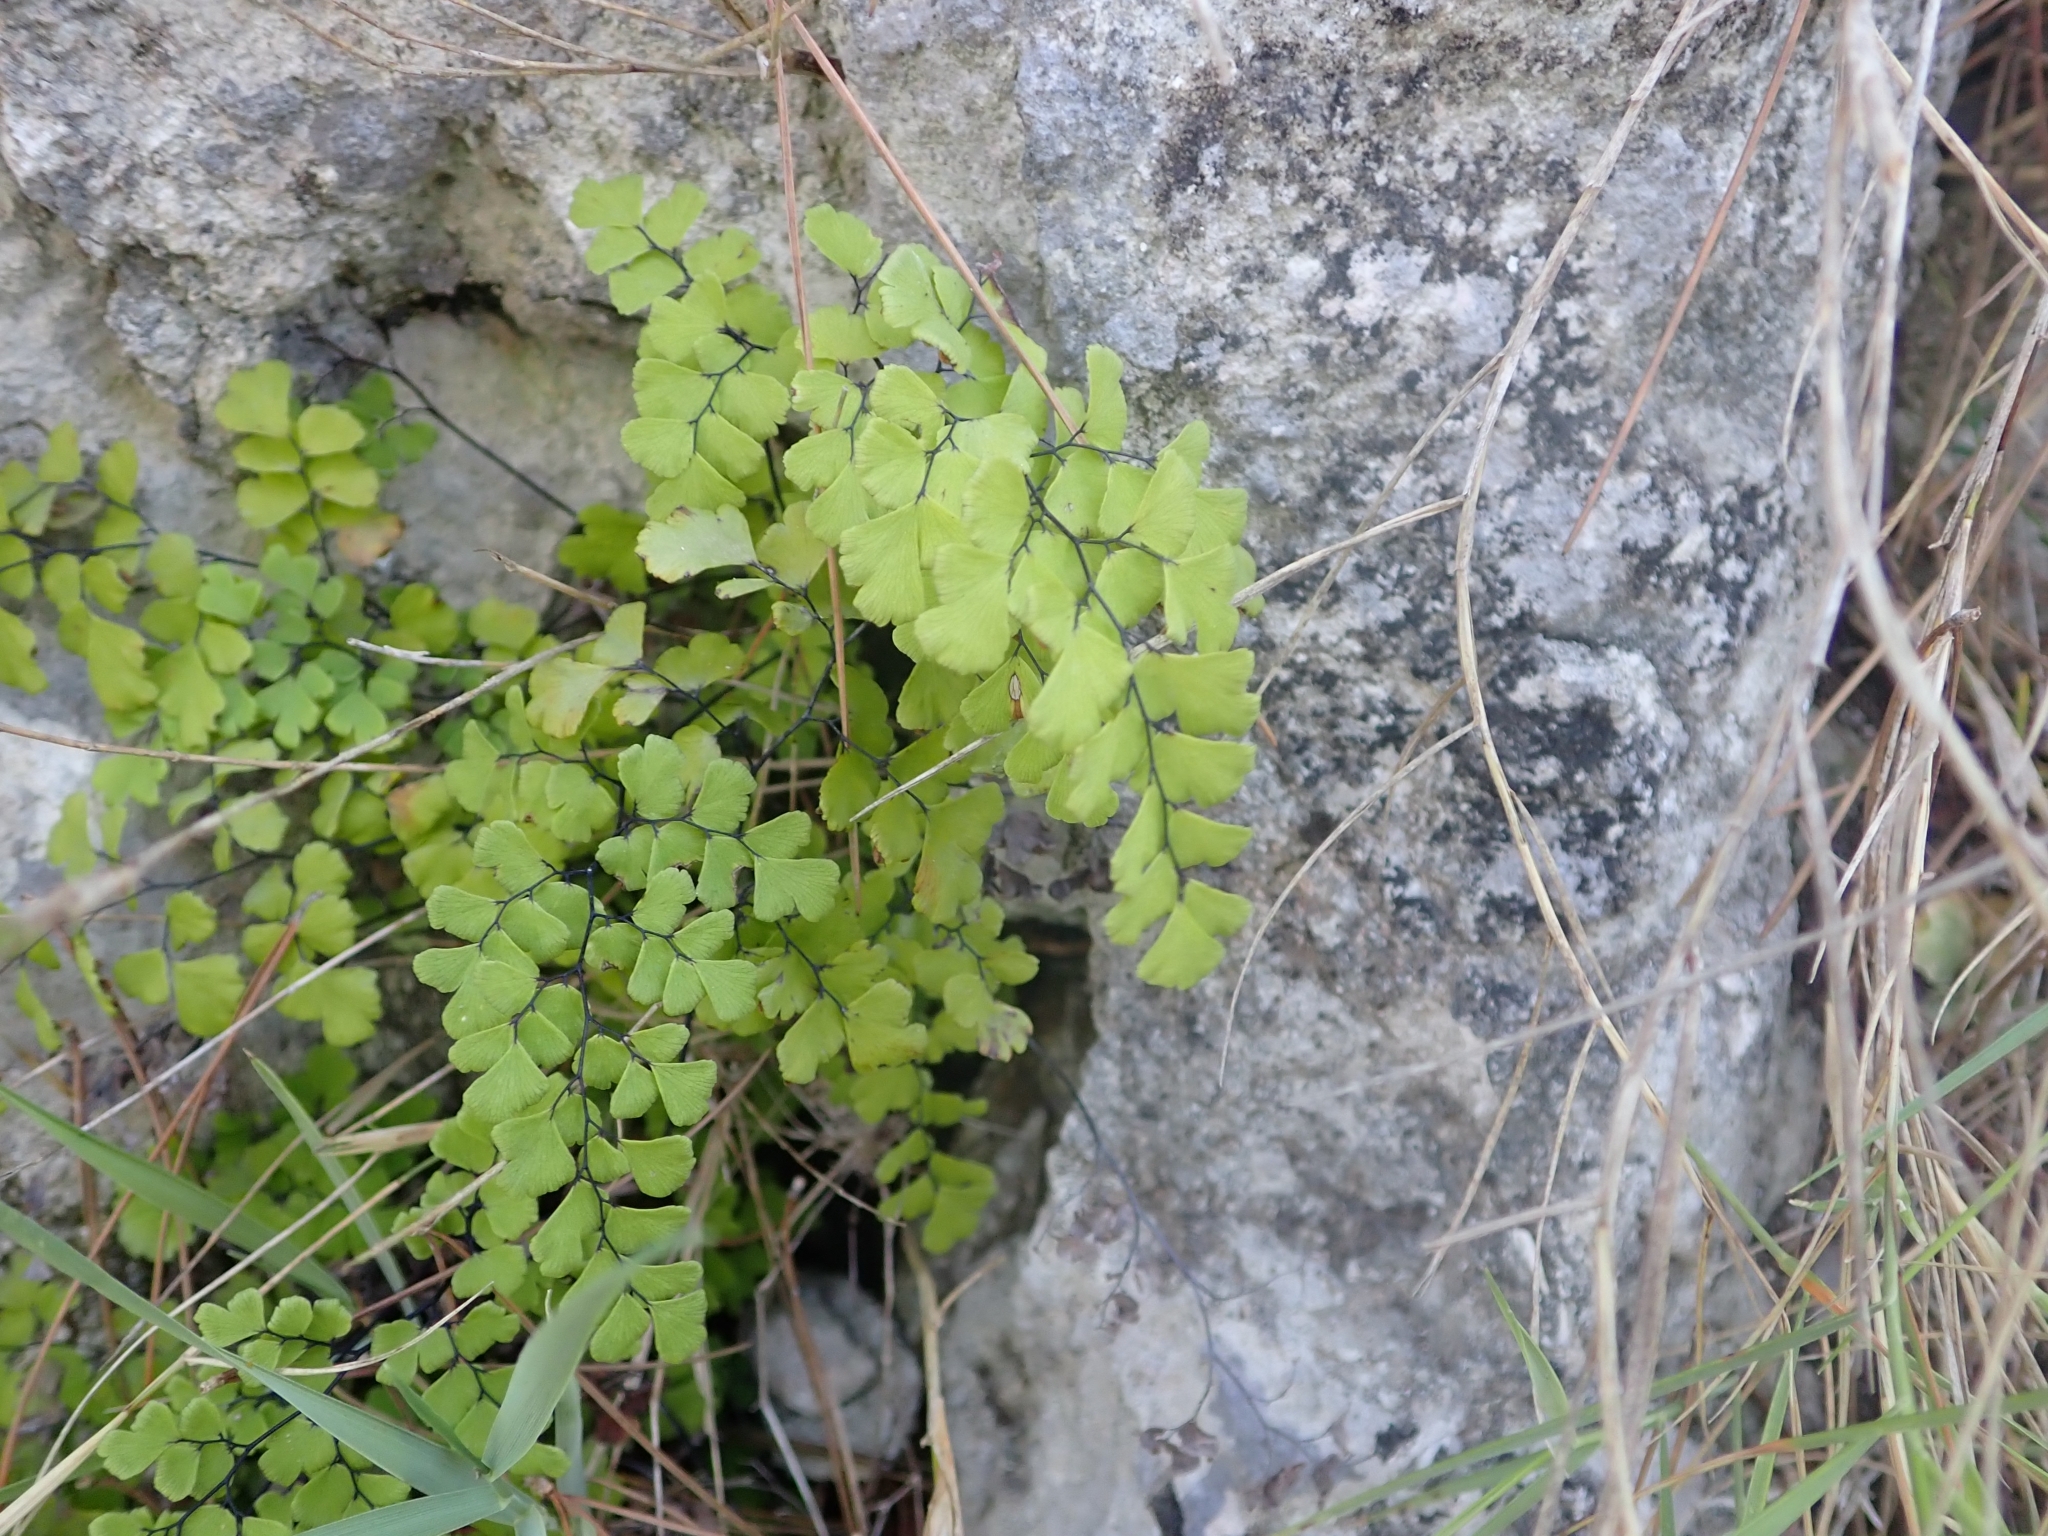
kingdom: Plantae
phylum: Tracheophyta
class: Polypodiopsida
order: Polypodiales
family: Pteridaceae
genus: Adiantum
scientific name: Adiantum capillus-veneris
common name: Maidenhair fern
